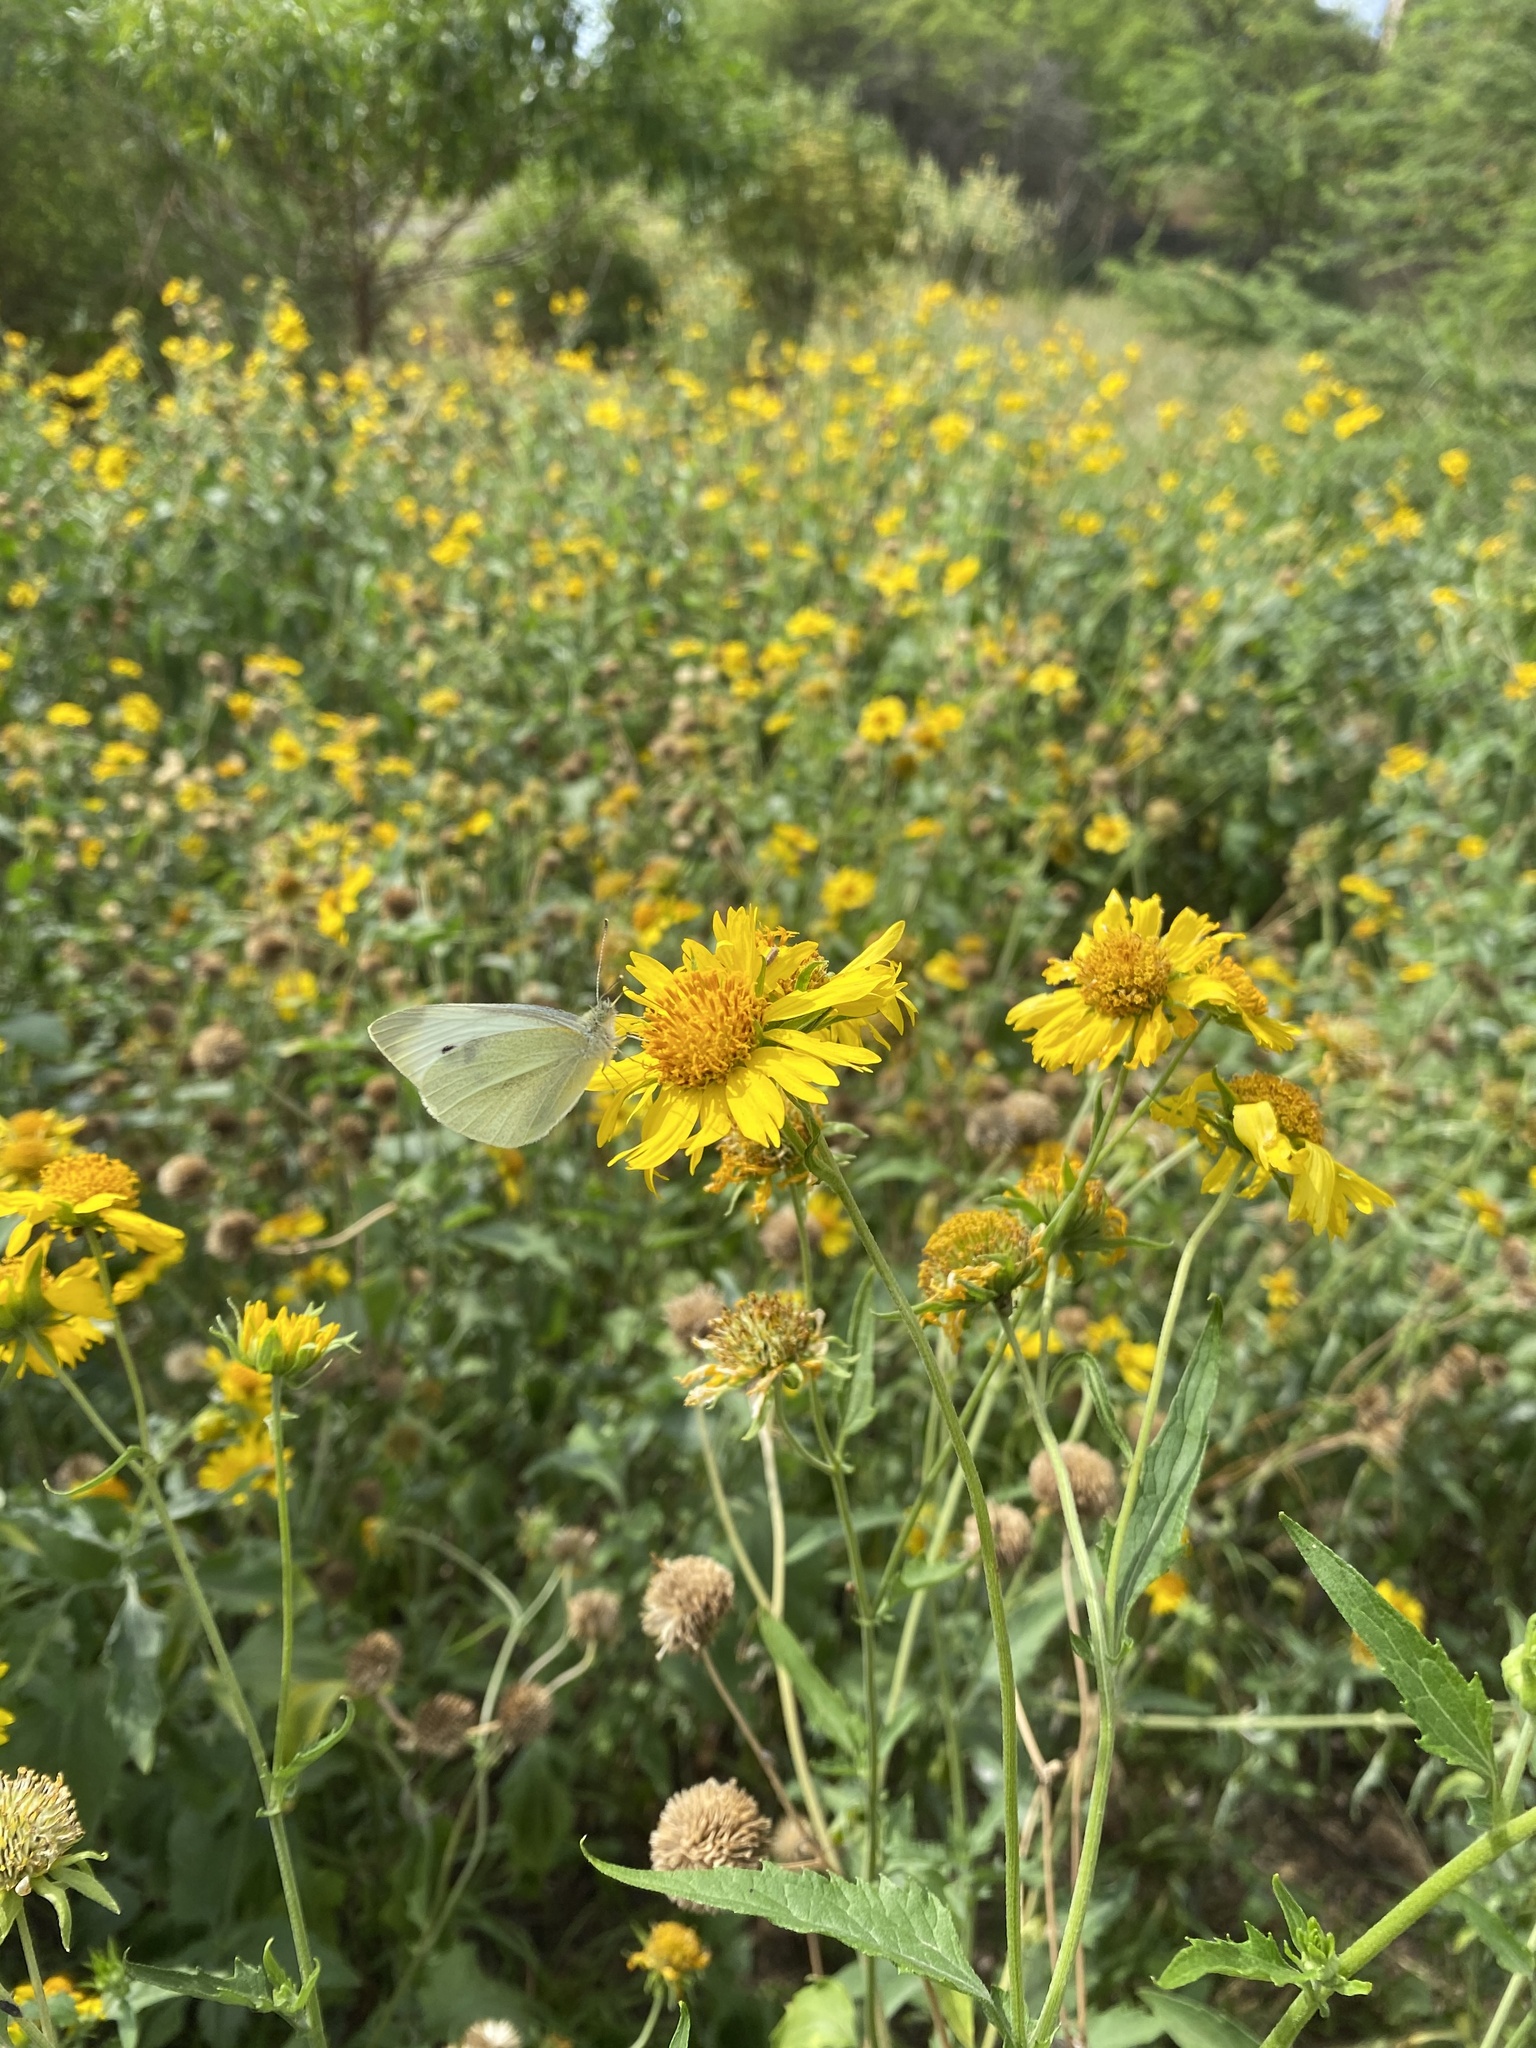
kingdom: Animalia
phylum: Arthropoda
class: Insecta
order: Lepidoptera
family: Pieridae
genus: Pieris
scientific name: Pieris rapae
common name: Small white
